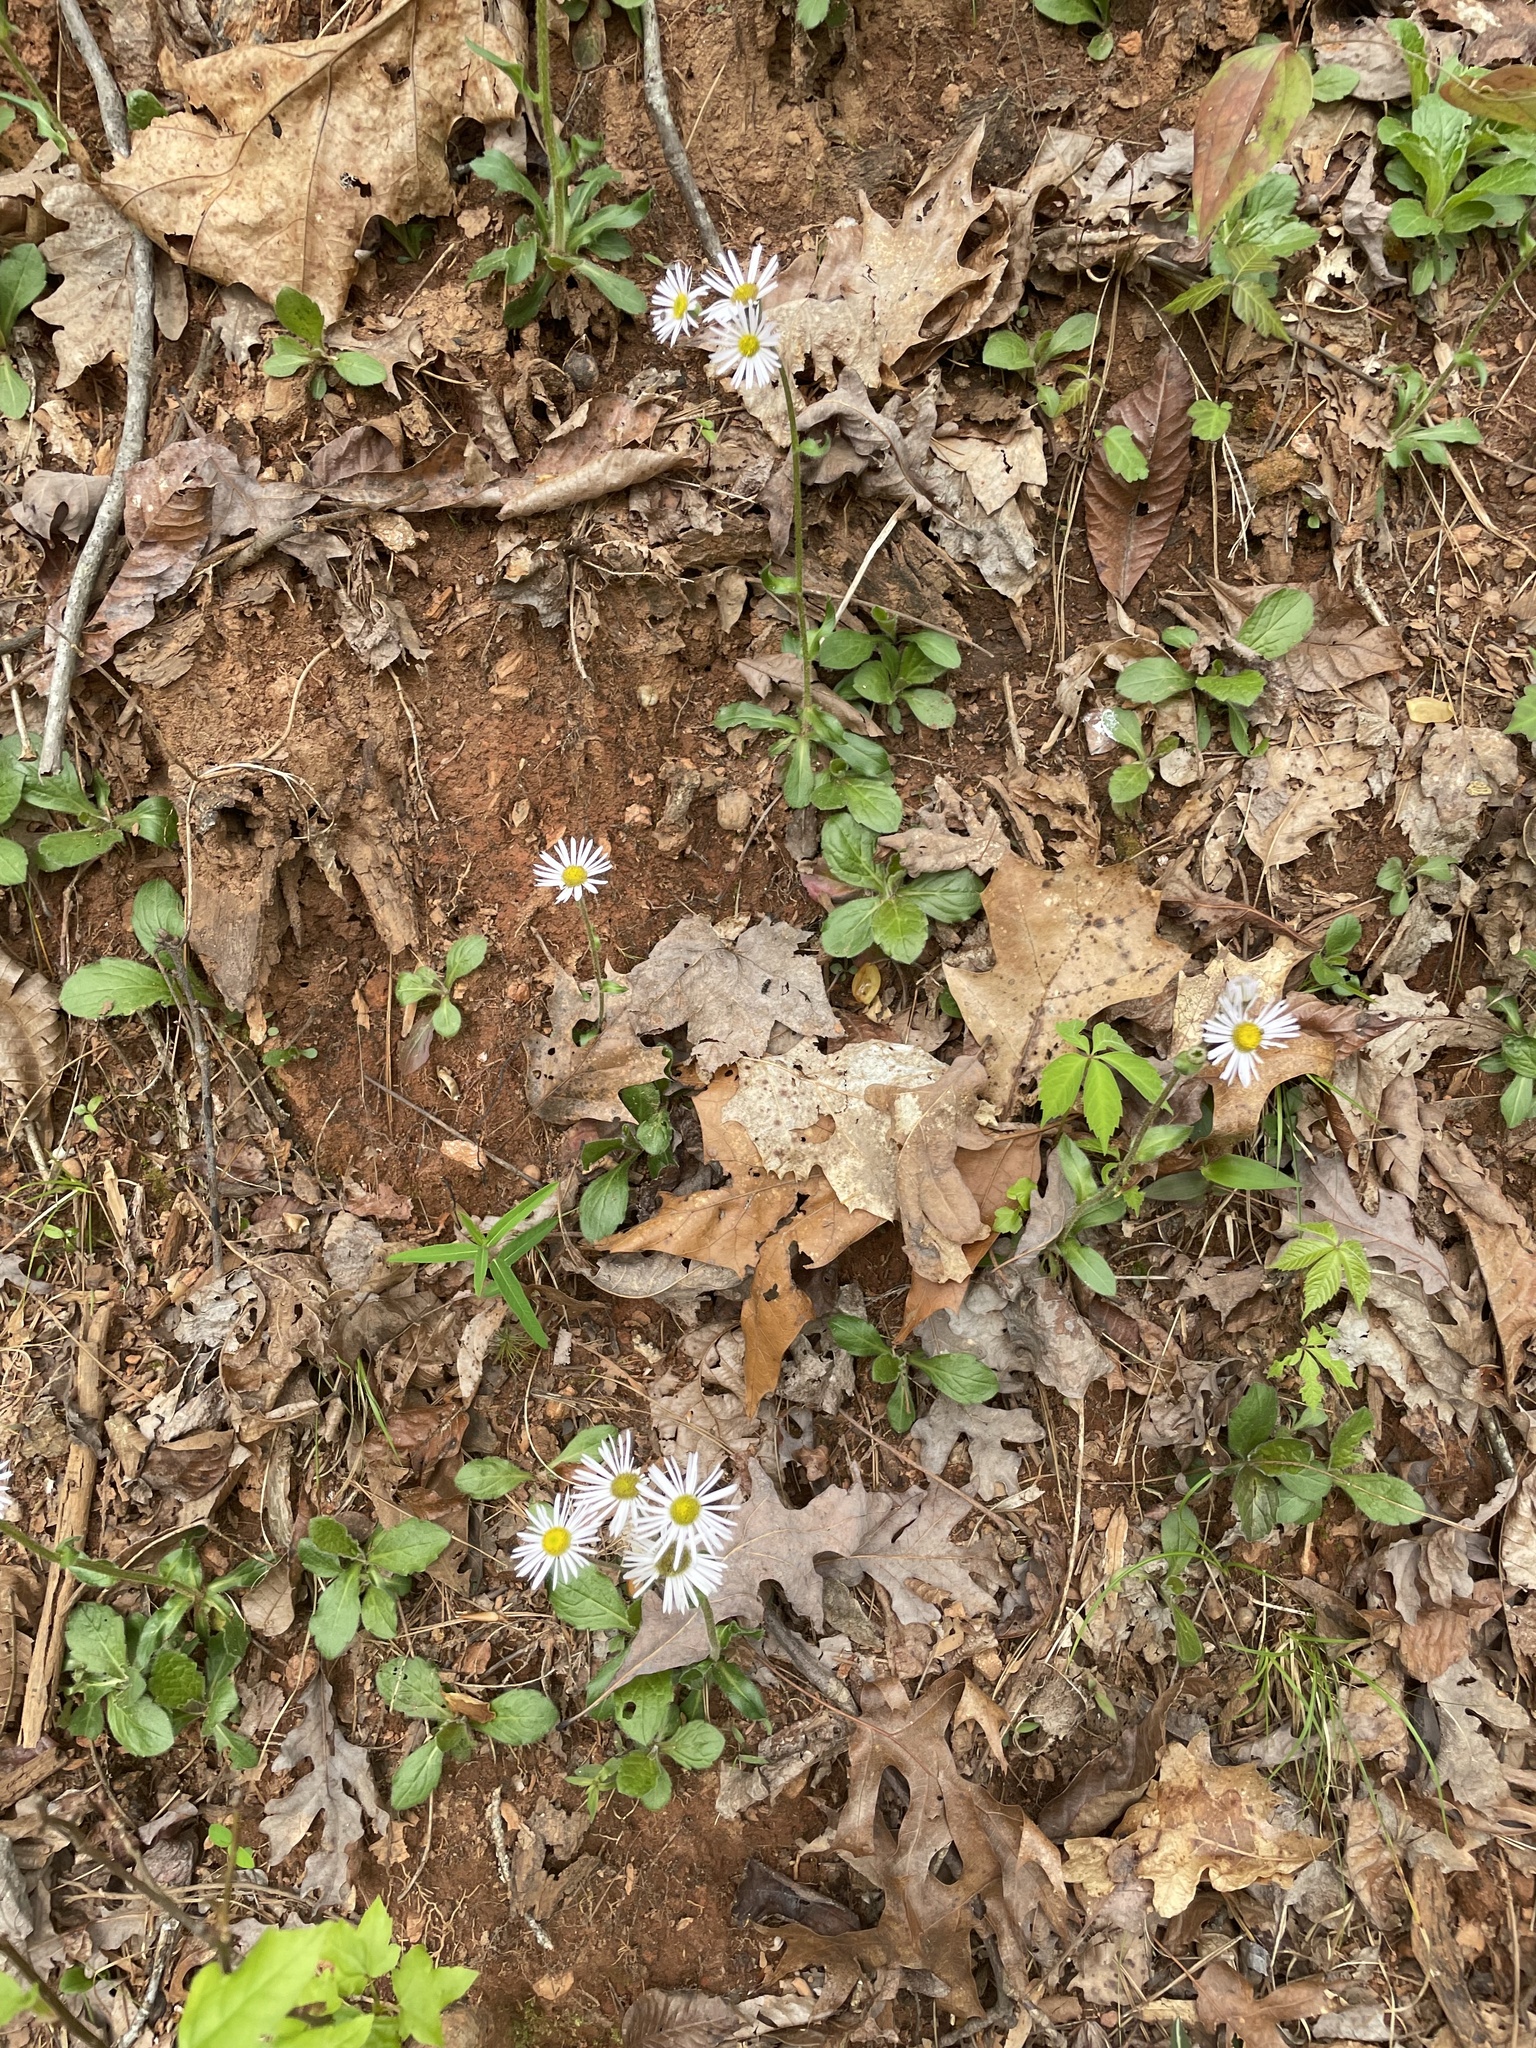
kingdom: Plantae
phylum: Tracheophyta
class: Magnoliopsida
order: Asterales
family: Asteraceae
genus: Erigeron
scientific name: Erigeron pulchellus
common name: Hairy fleabane
